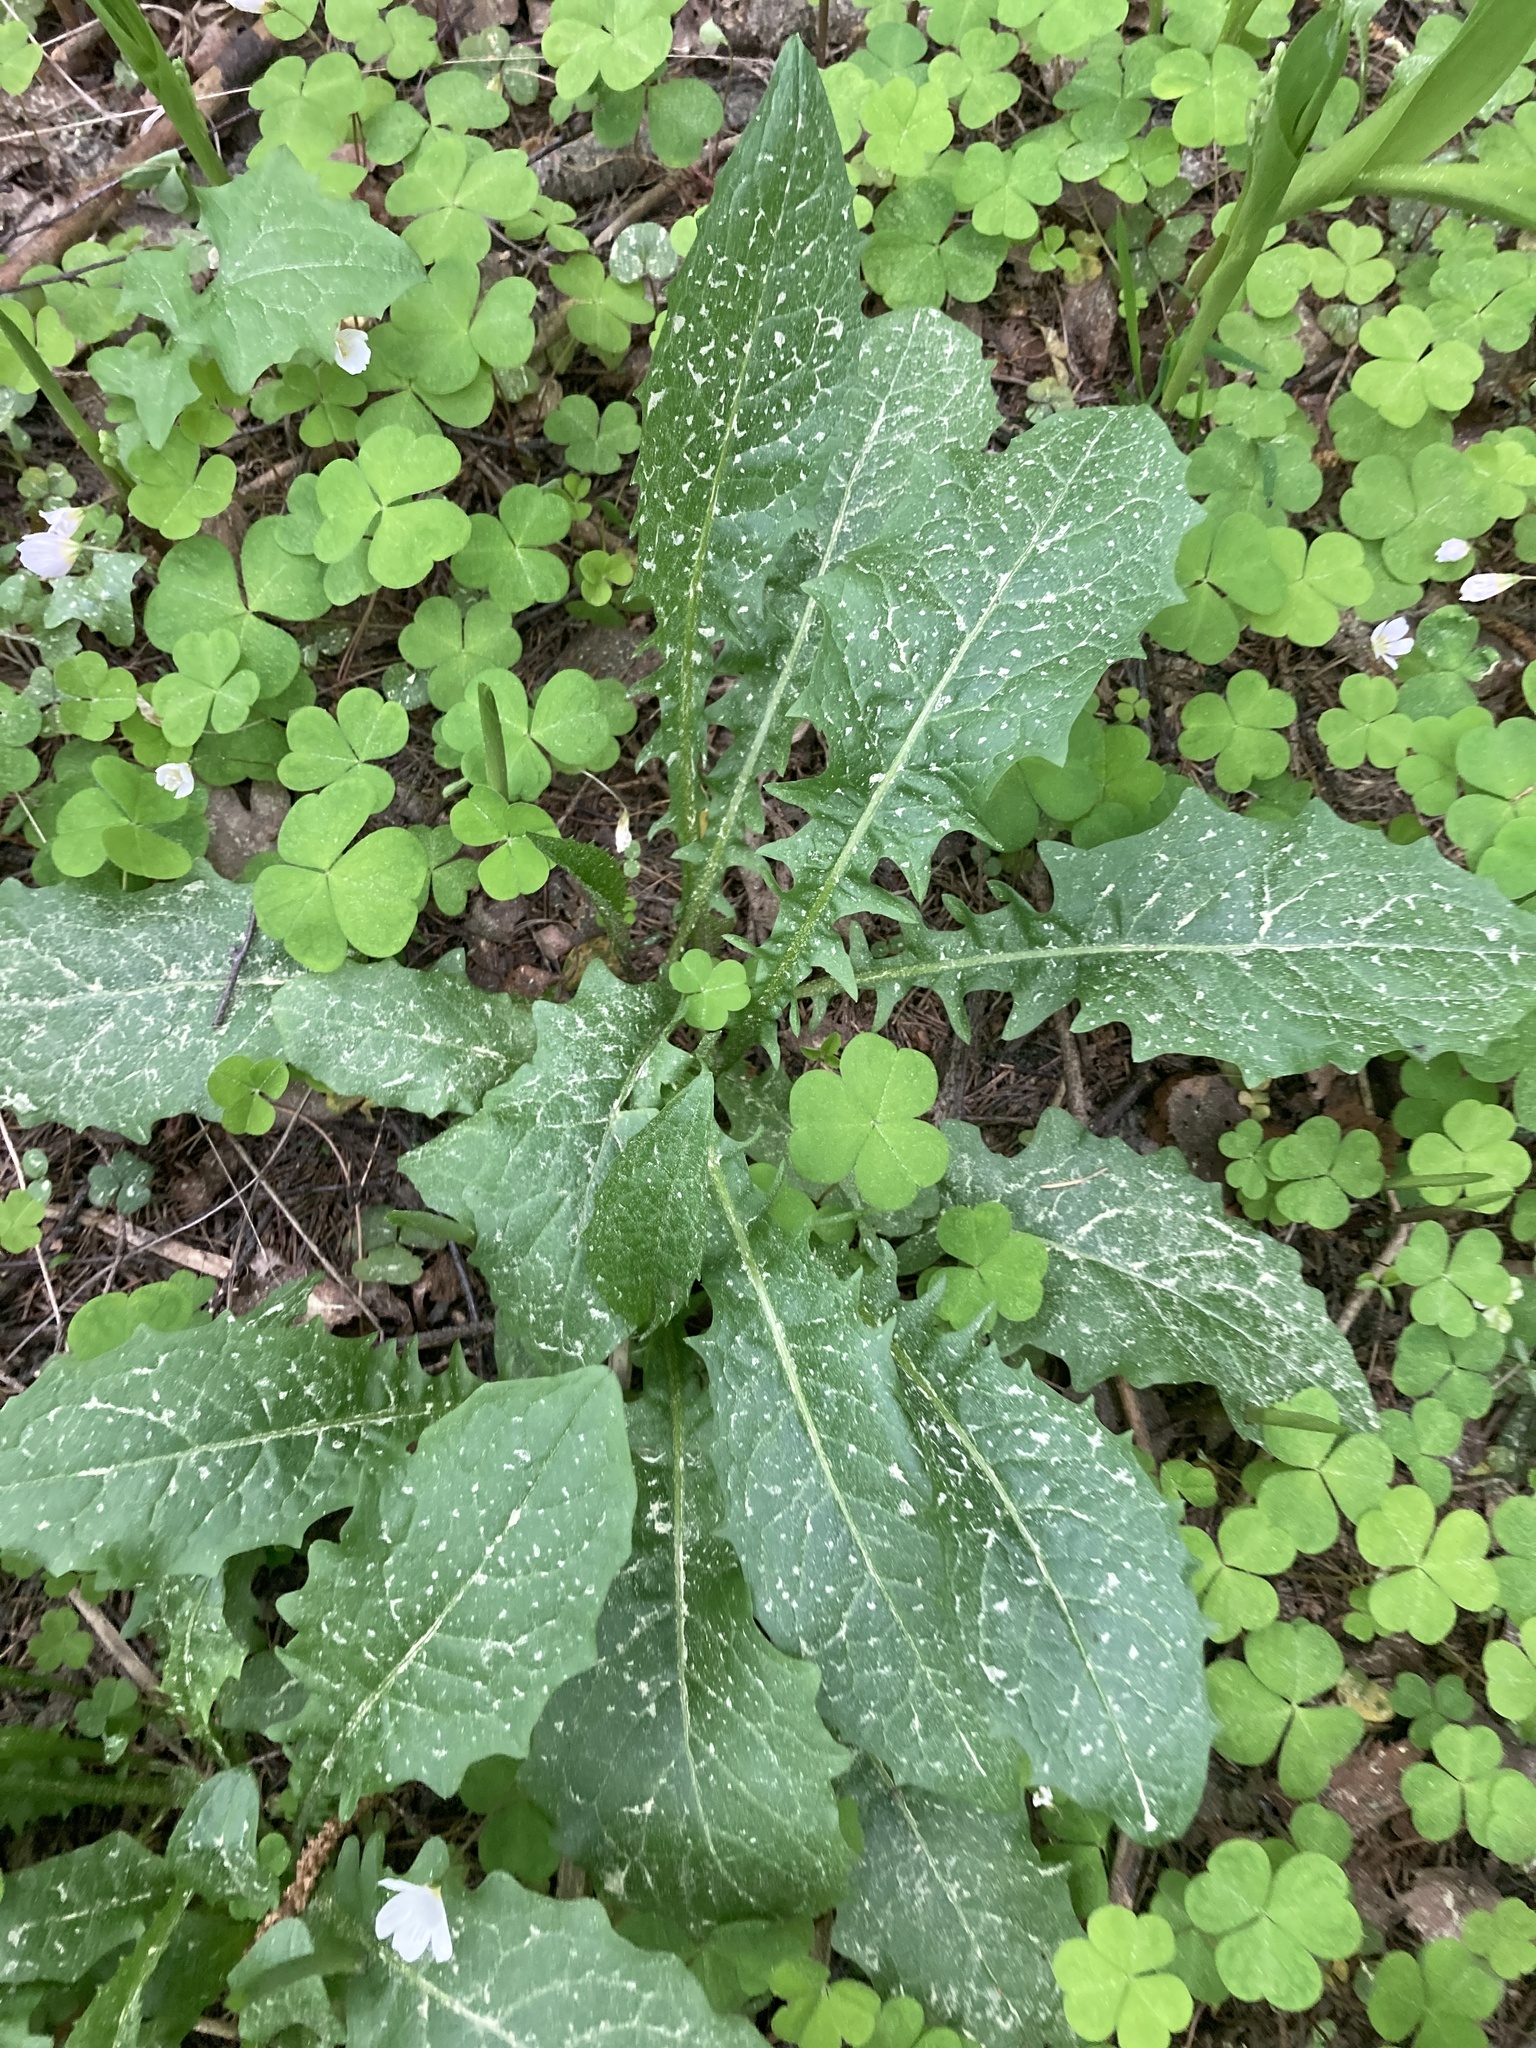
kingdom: Plantae
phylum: Tracheophyta
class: Magnoliopsida
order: Asterales
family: Asteraceae
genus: Crepis
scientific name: Crepis paludosa
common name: Marsh hawk's-beard
